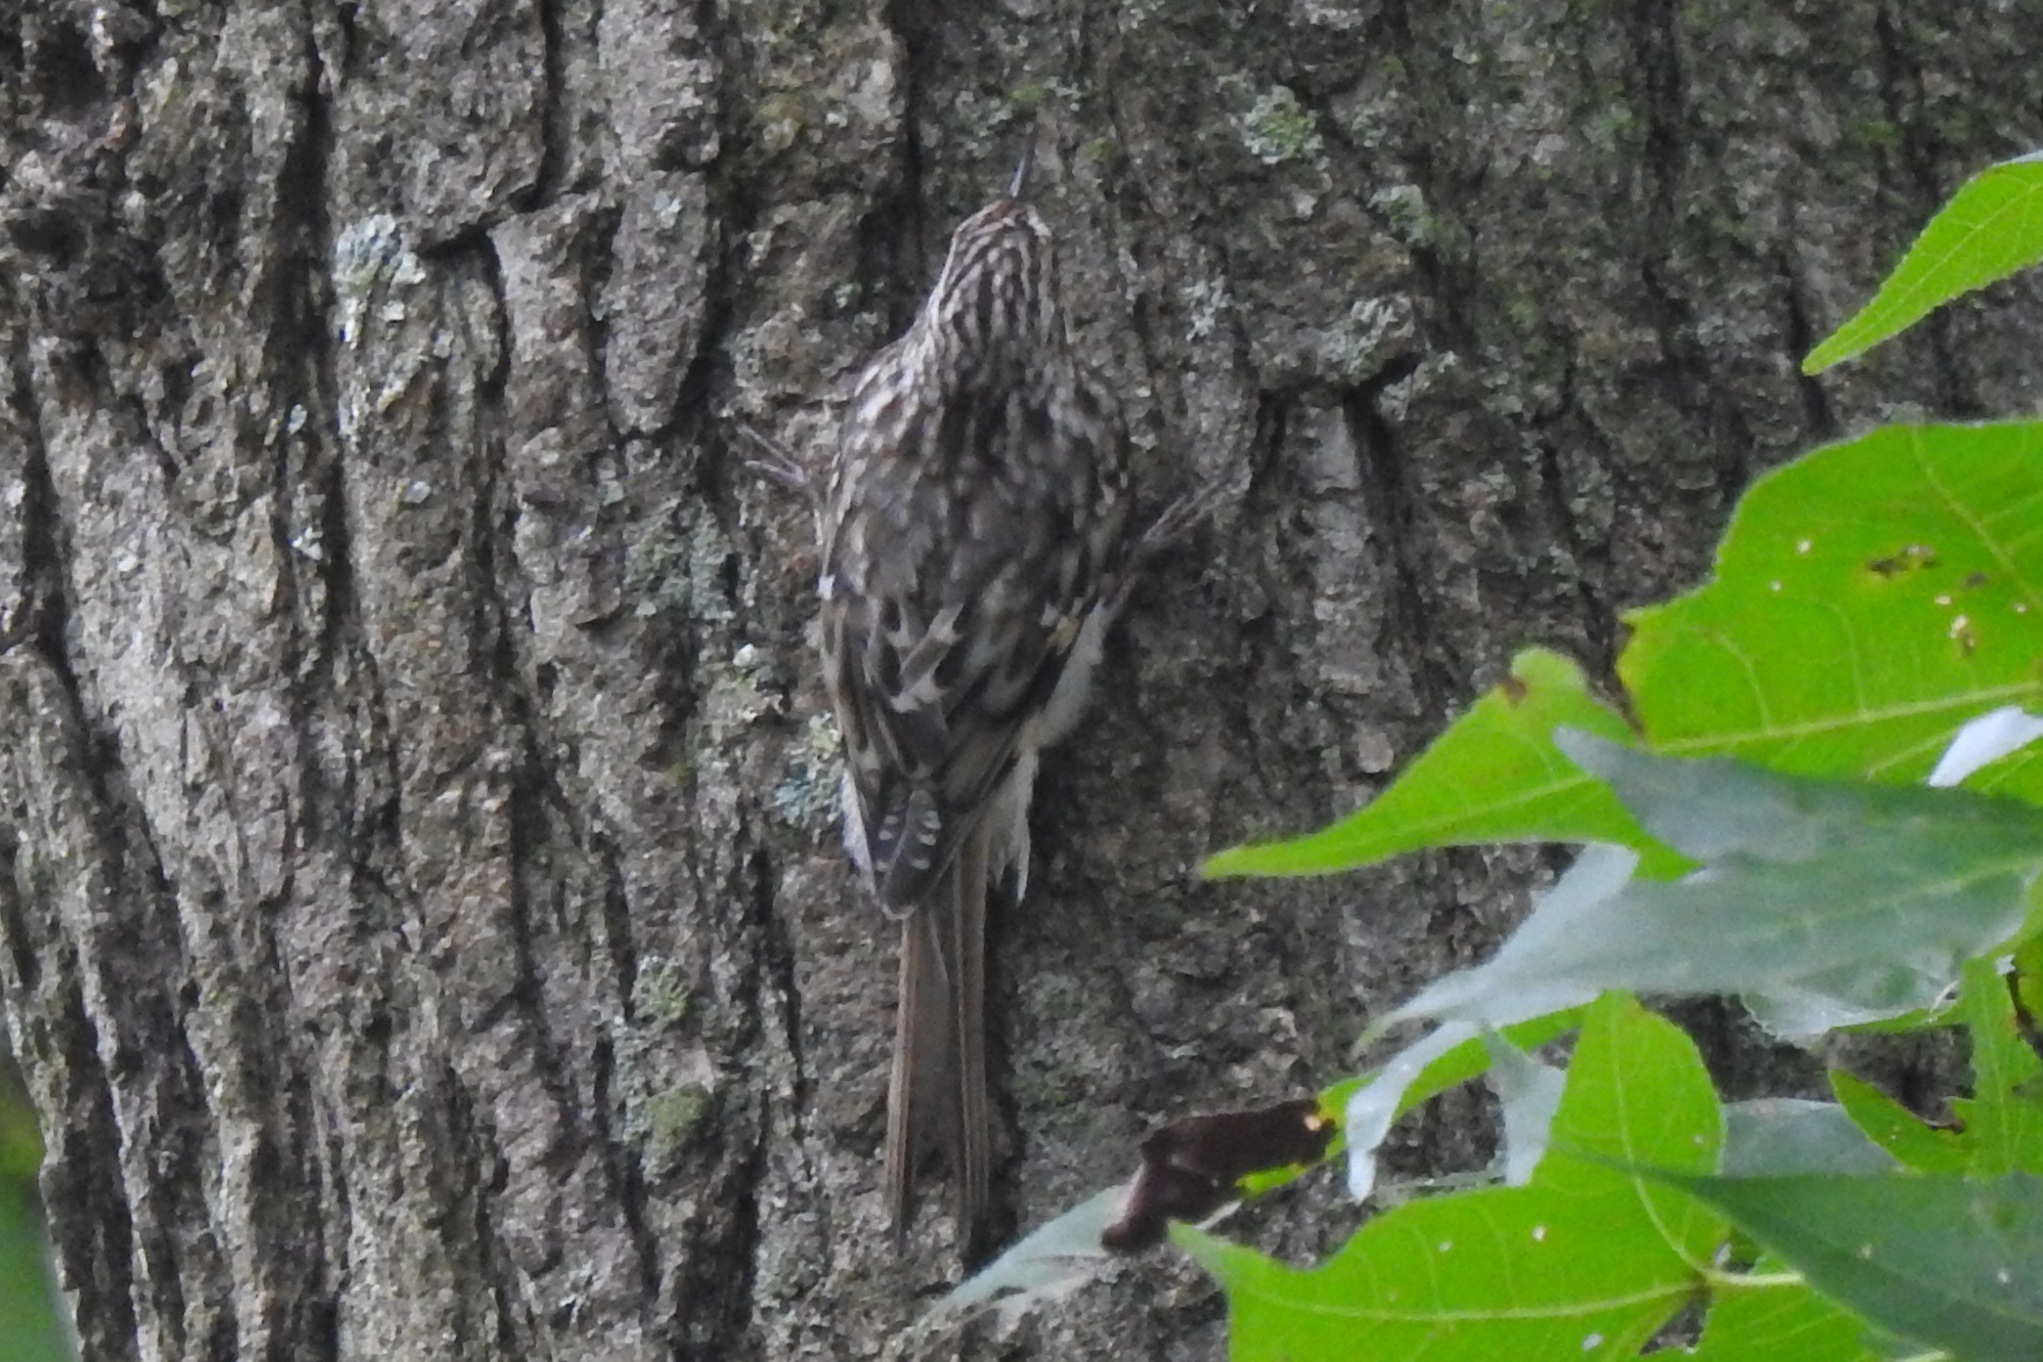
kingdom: Animalia
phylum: Chordata
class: Aves
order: Passeriformes
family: Certhiidae
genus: Certhia
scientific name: Certhia americana
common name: Brown creeper
